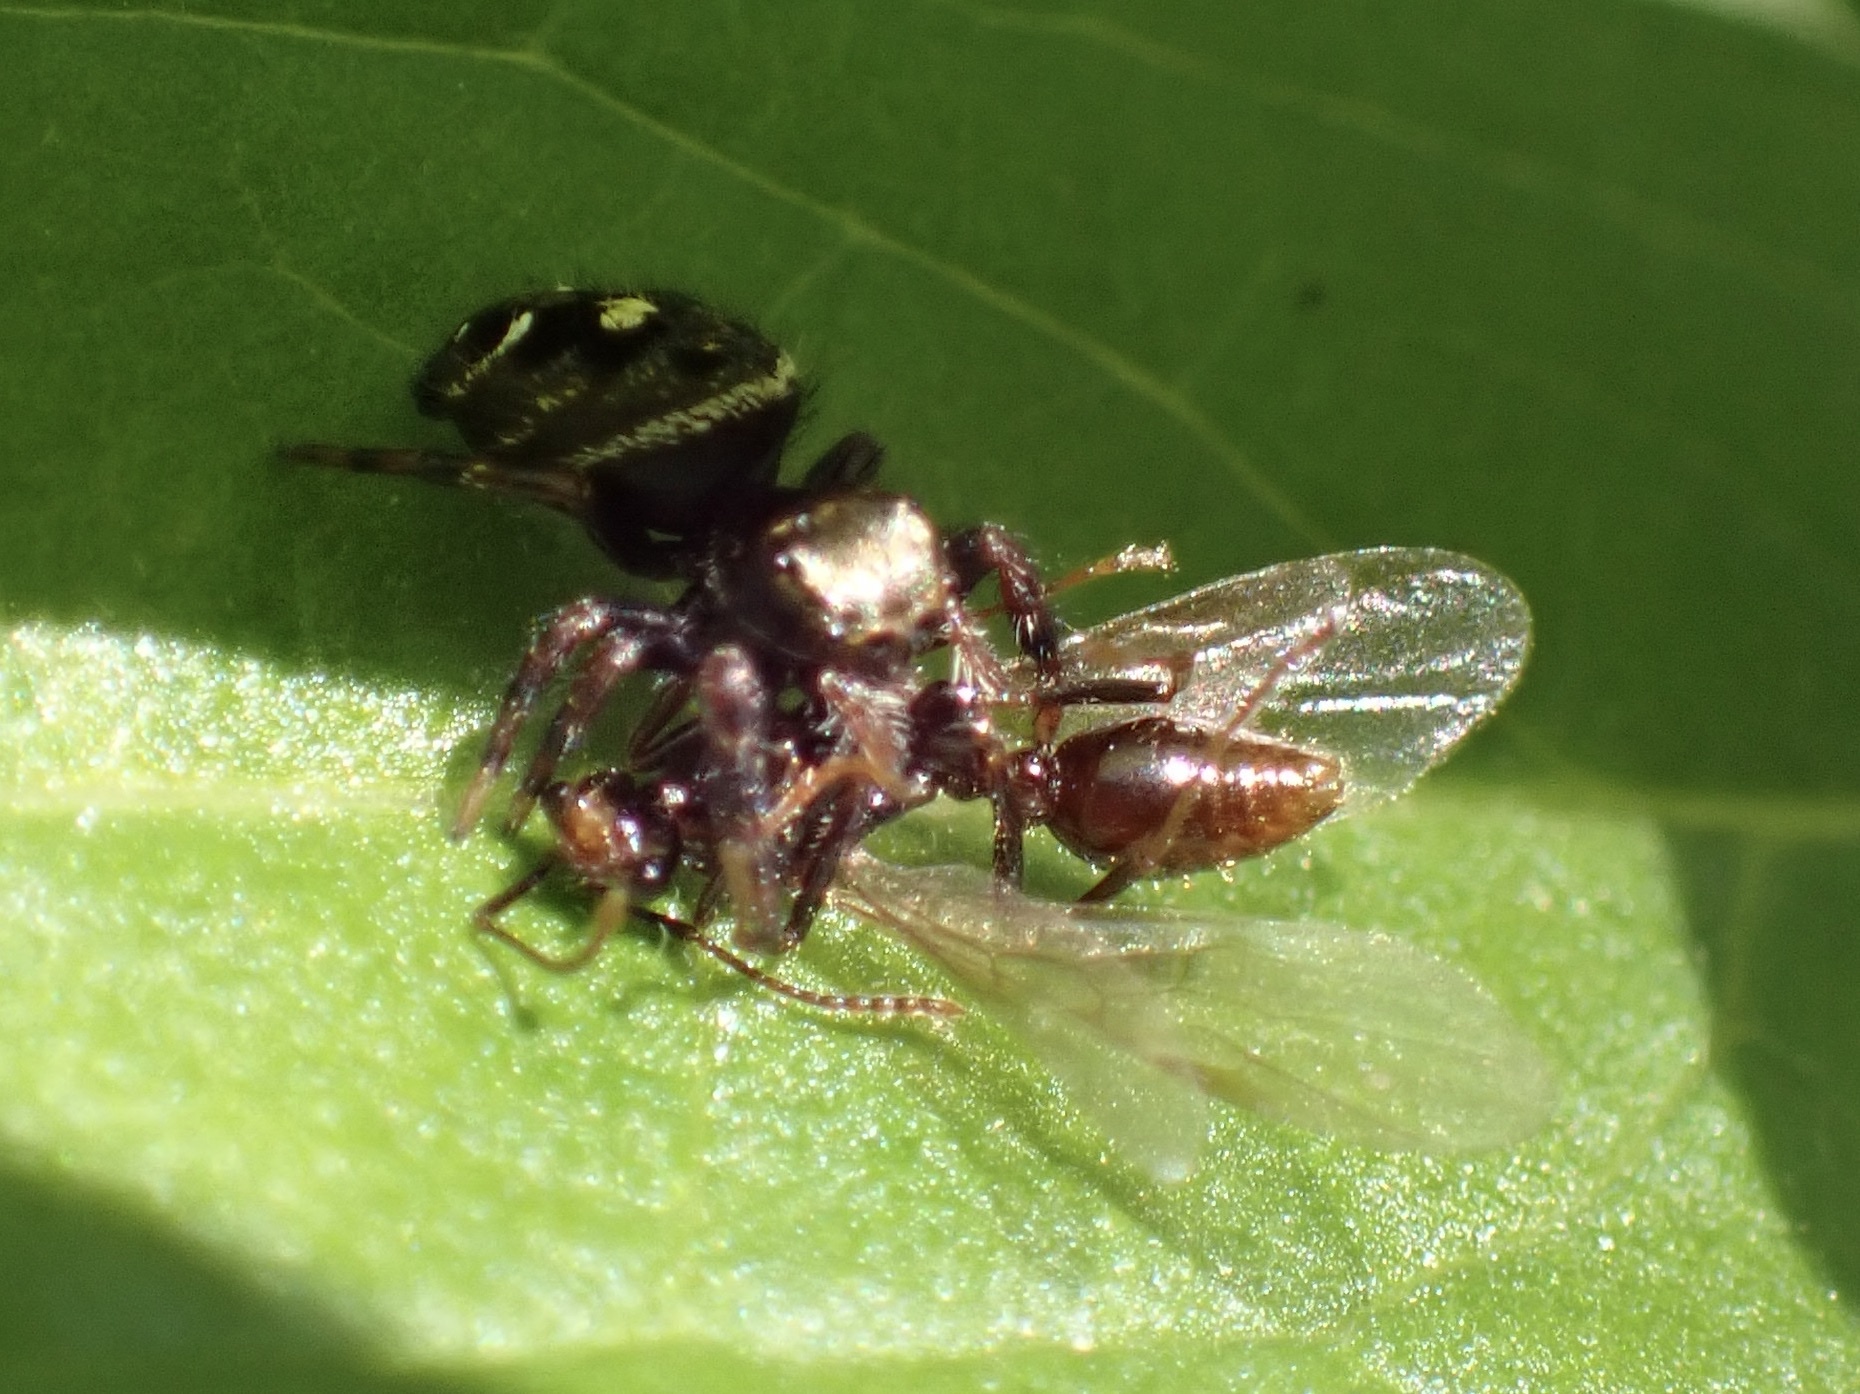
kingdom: Animalia
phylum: Arthropoda
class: Arachnida
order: Araneae
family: Salticidae
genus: Phidippus
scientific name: Phidippus audax
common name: Bold jumper
